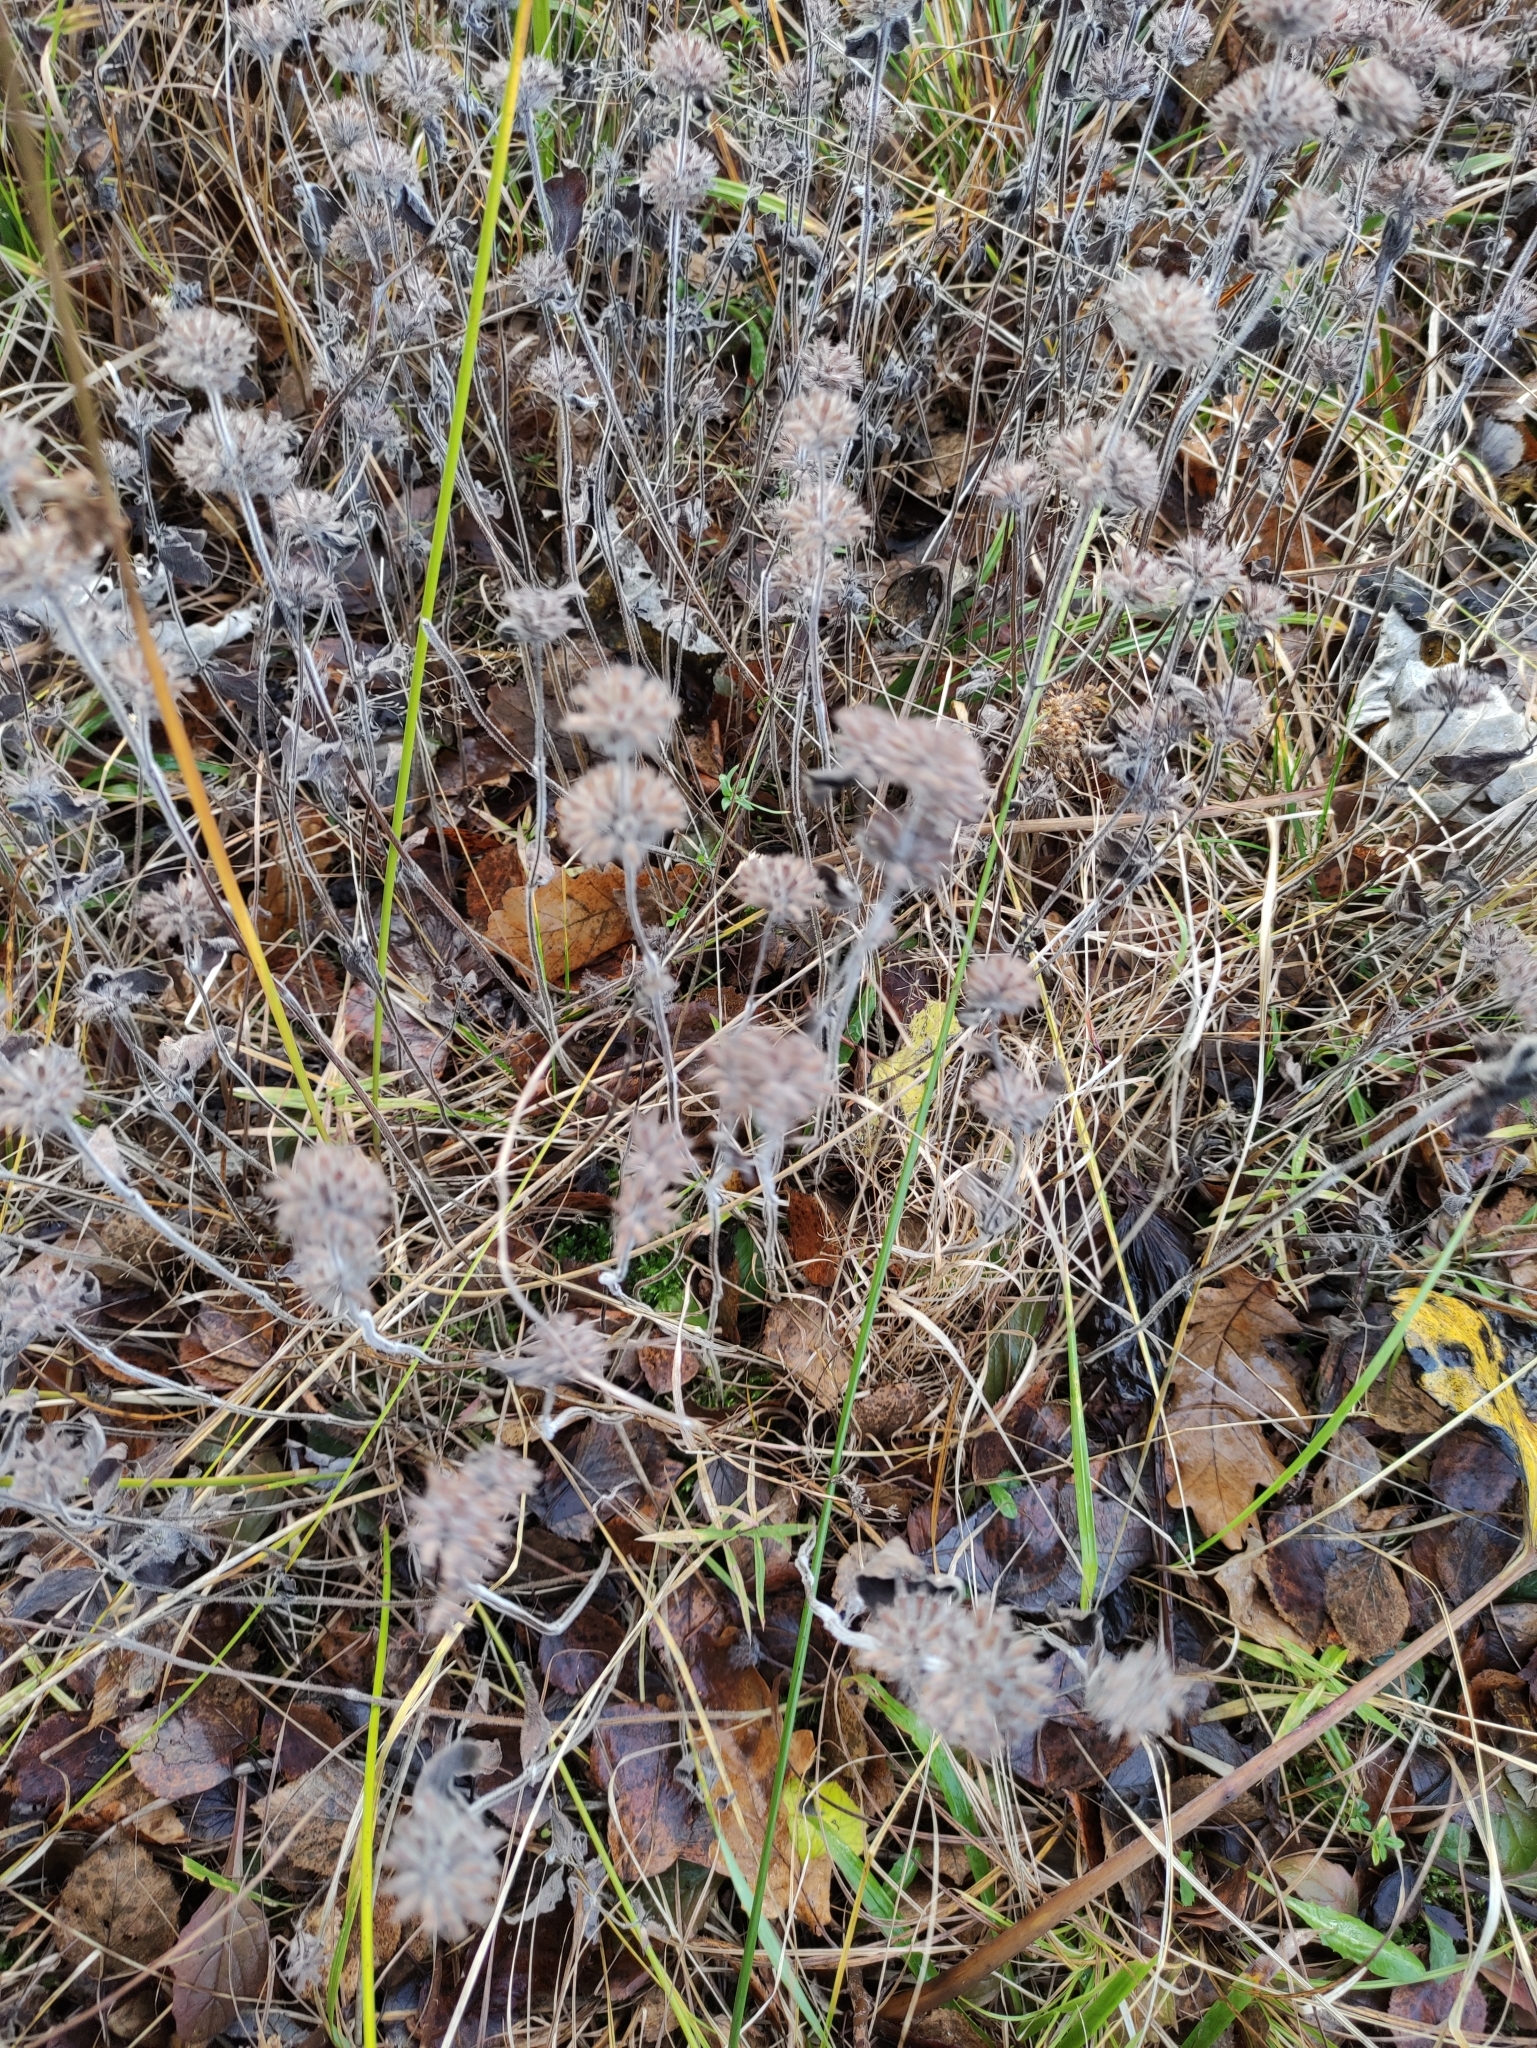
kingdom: Plantae
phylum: Tracheophyta
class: Magnoliopsida
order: Lamiales
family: Lamiaceae
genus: Clinopodium
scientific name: Clinopodium vulgare
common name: Wild basil
